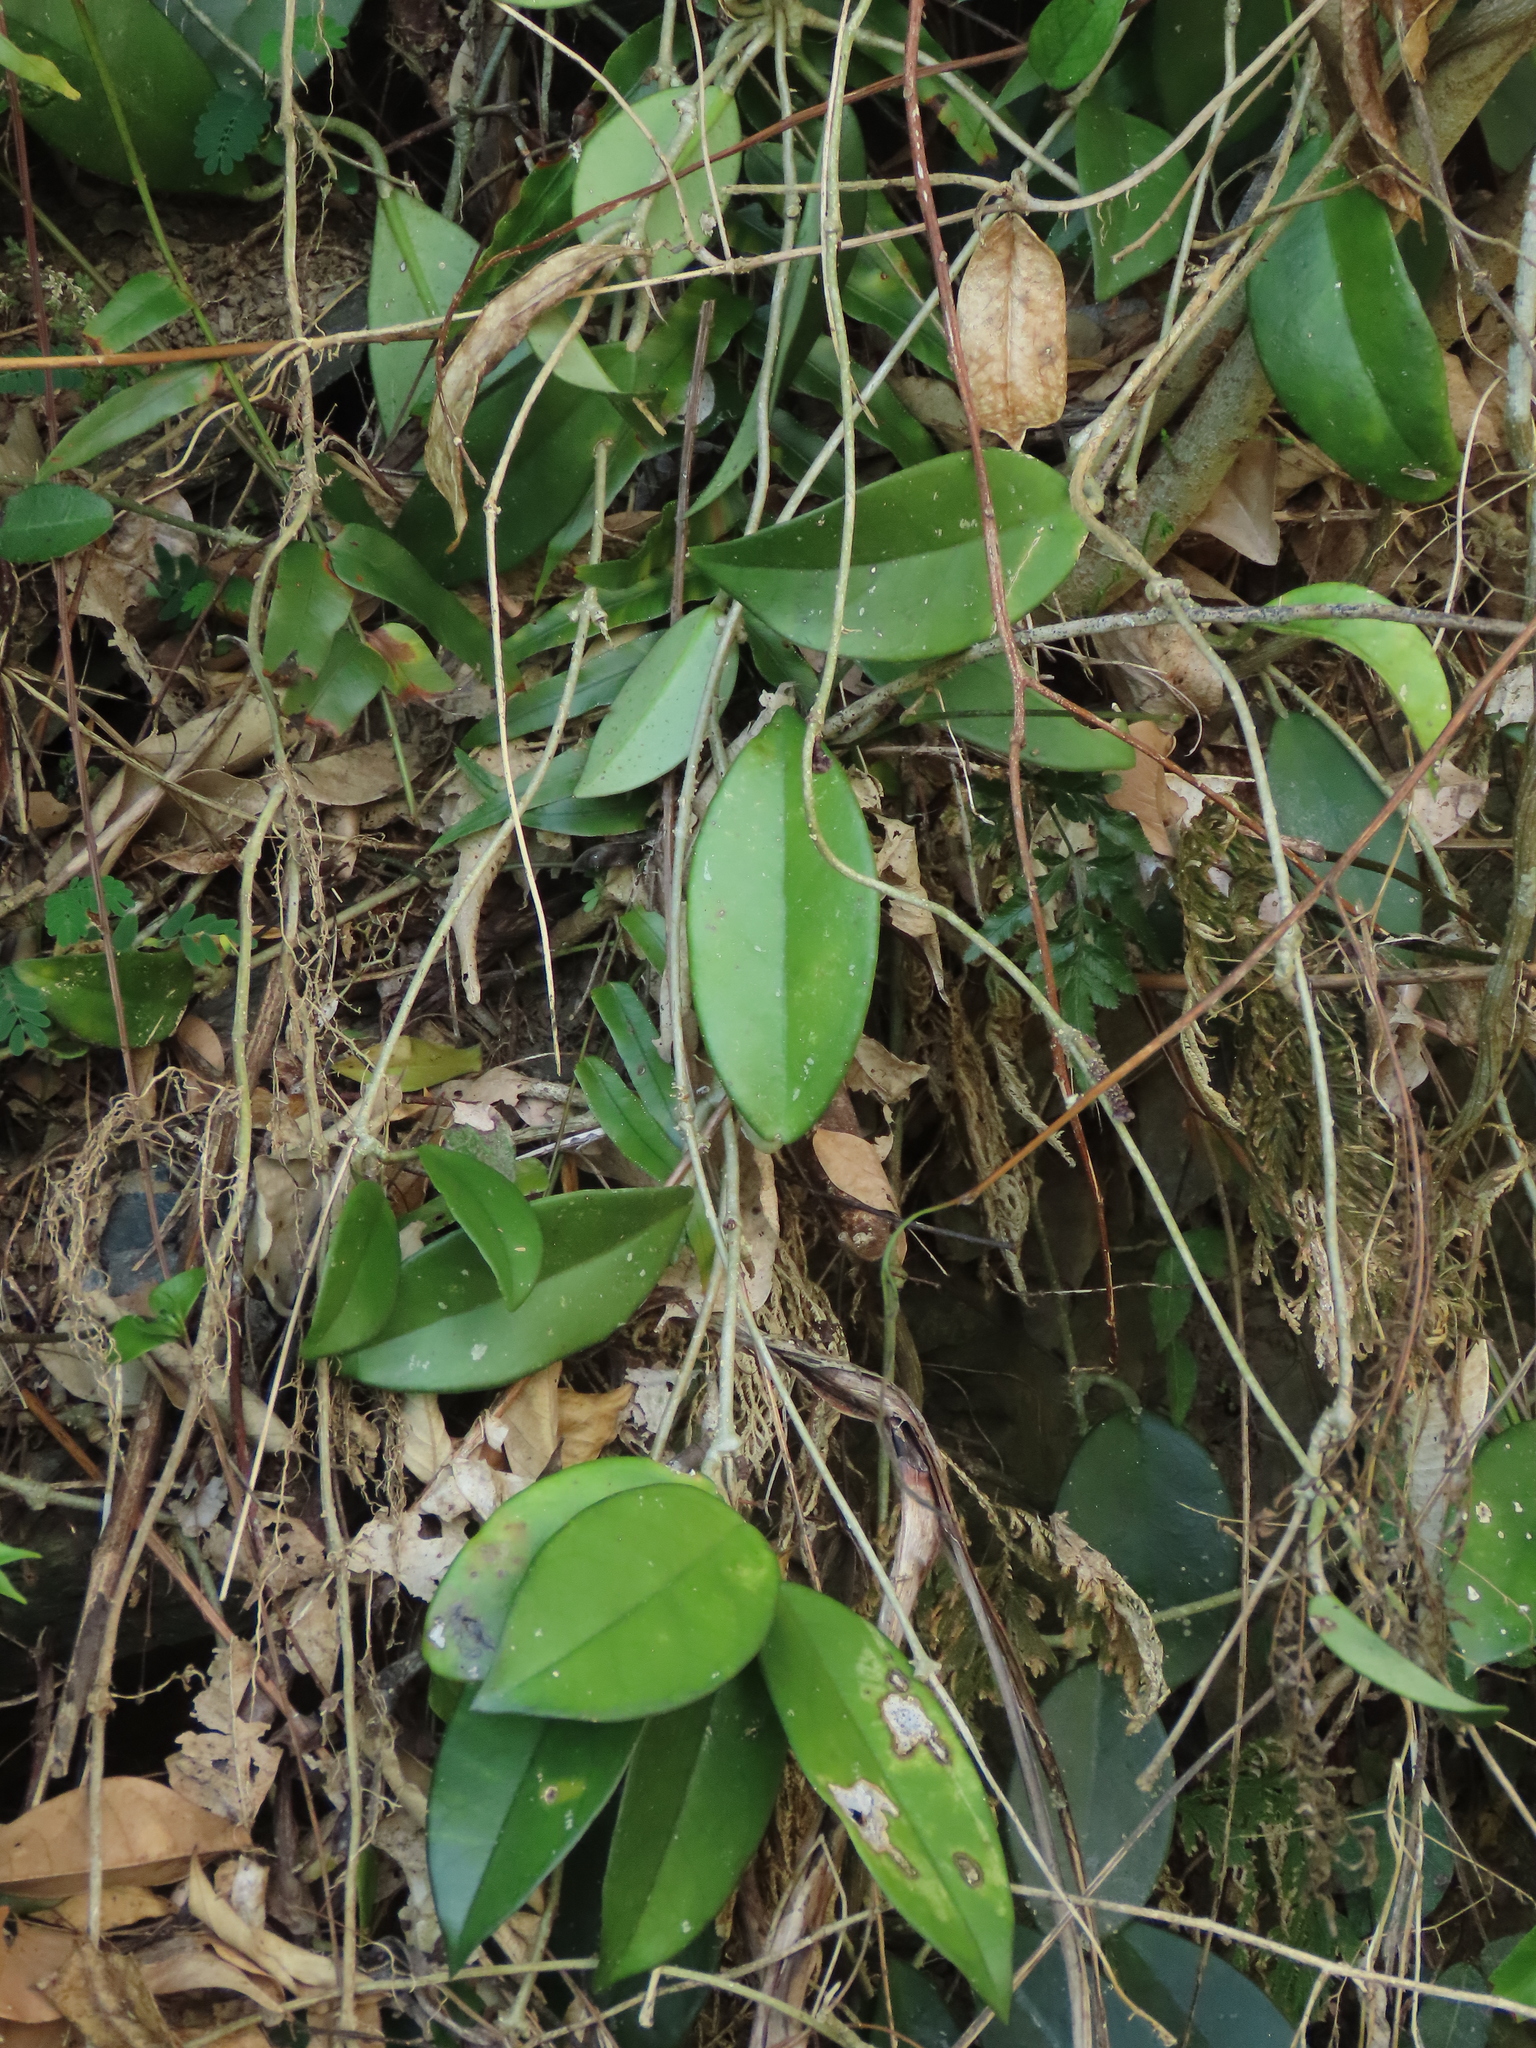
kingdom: Plantae
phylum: Tracheophyta
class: Magnoliopsida
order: Gentianales
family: Apocynaceae
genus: Hoya
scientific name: Hoya carnosa
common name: Honeyplant
